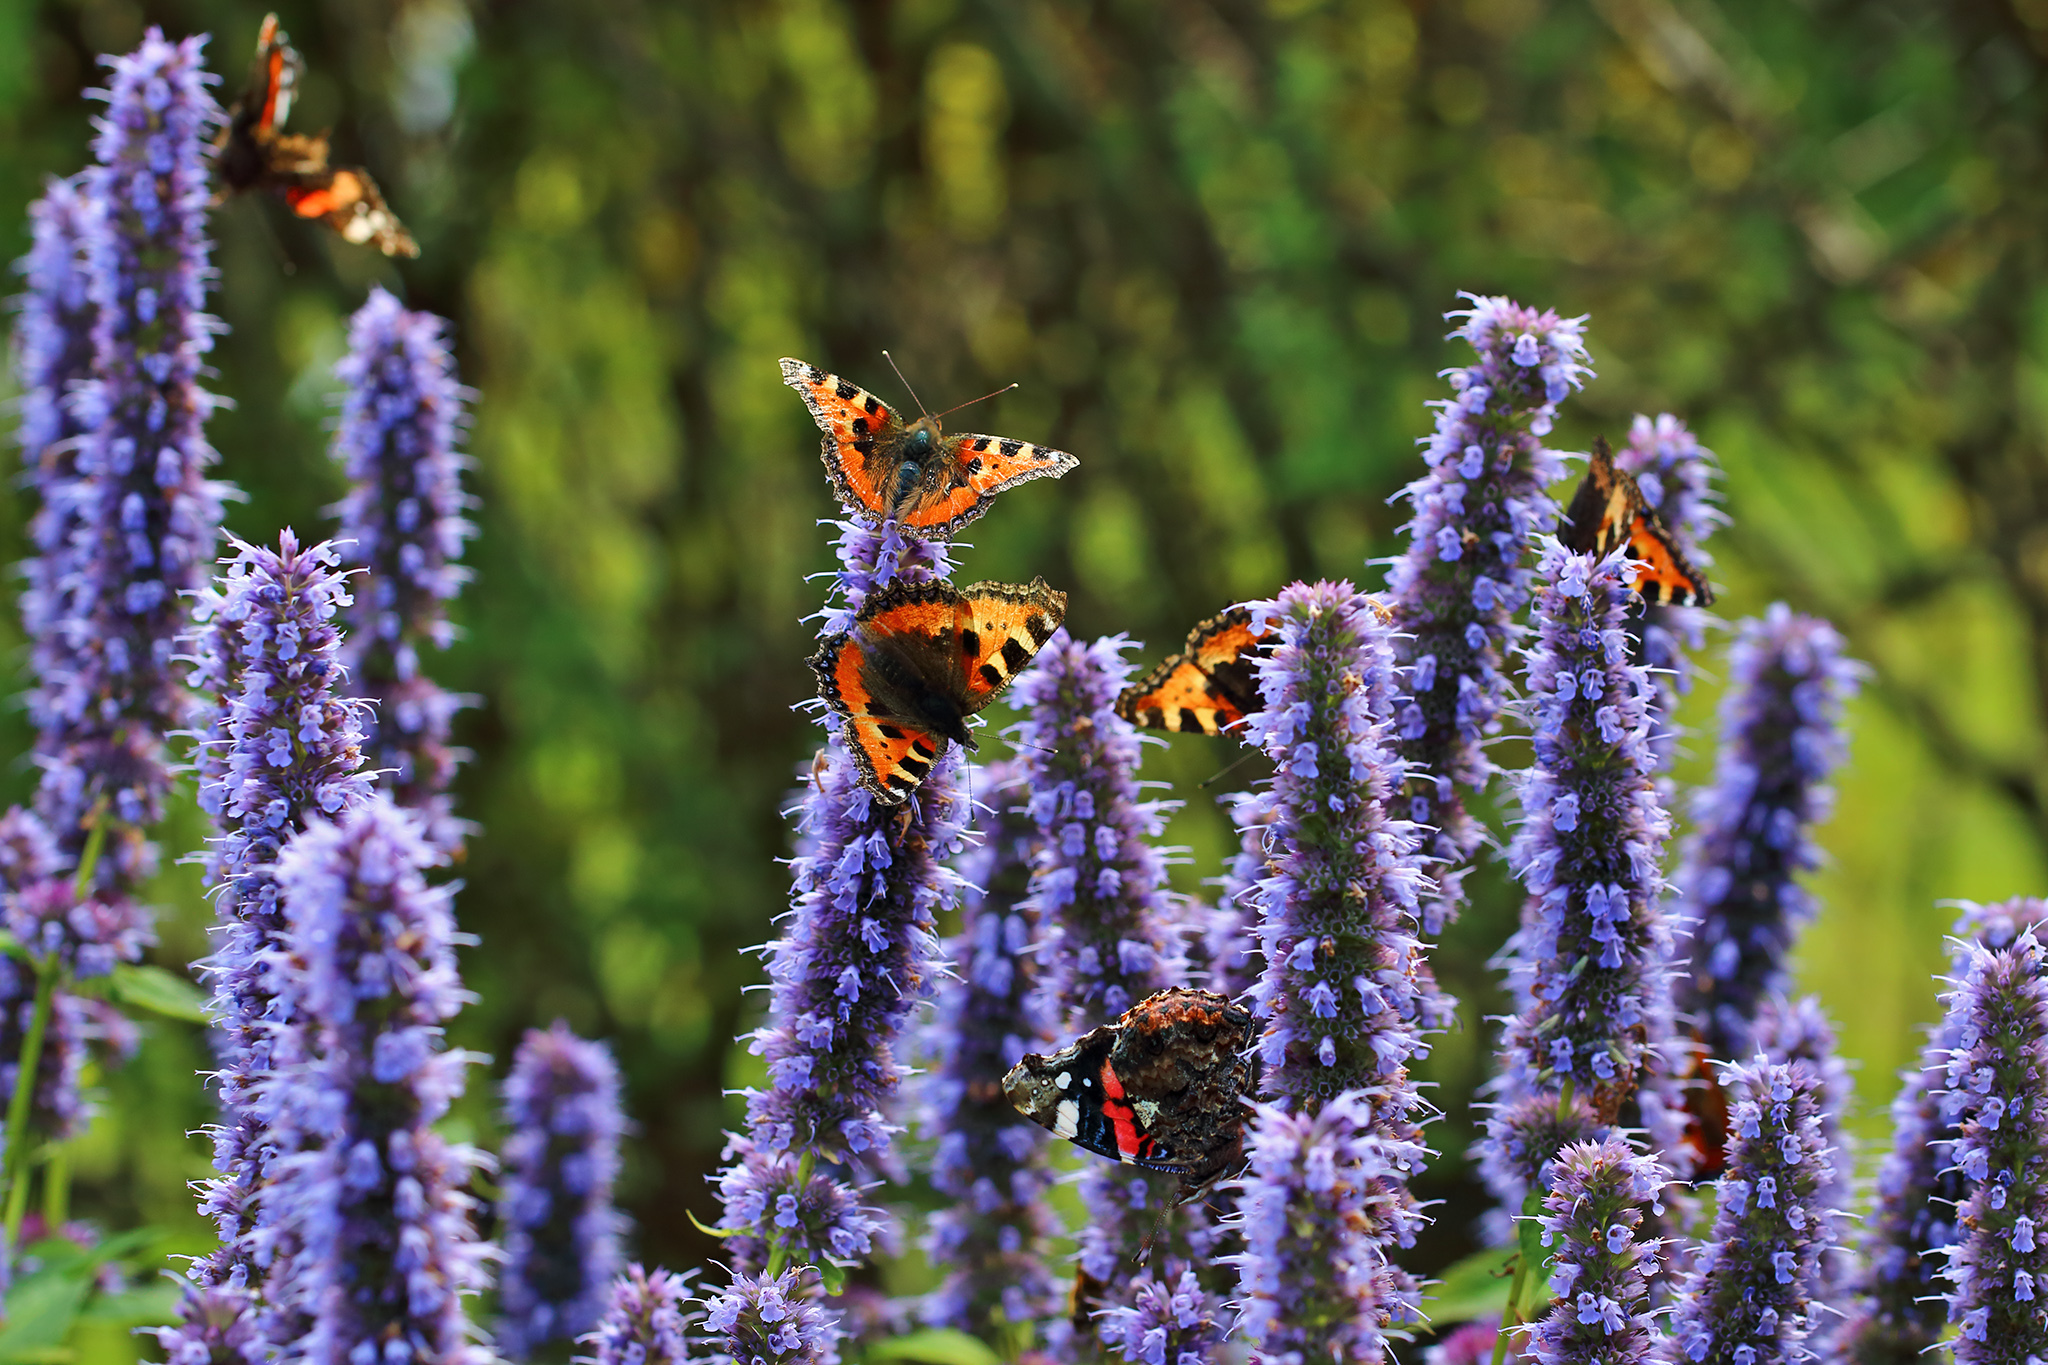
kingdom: Animalia
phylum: Arthropoda
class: Insecta
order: Lepidoptera
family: Nymphalidae
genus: Aglais
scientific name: Aglais urticae
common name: Small tortoiseshell
